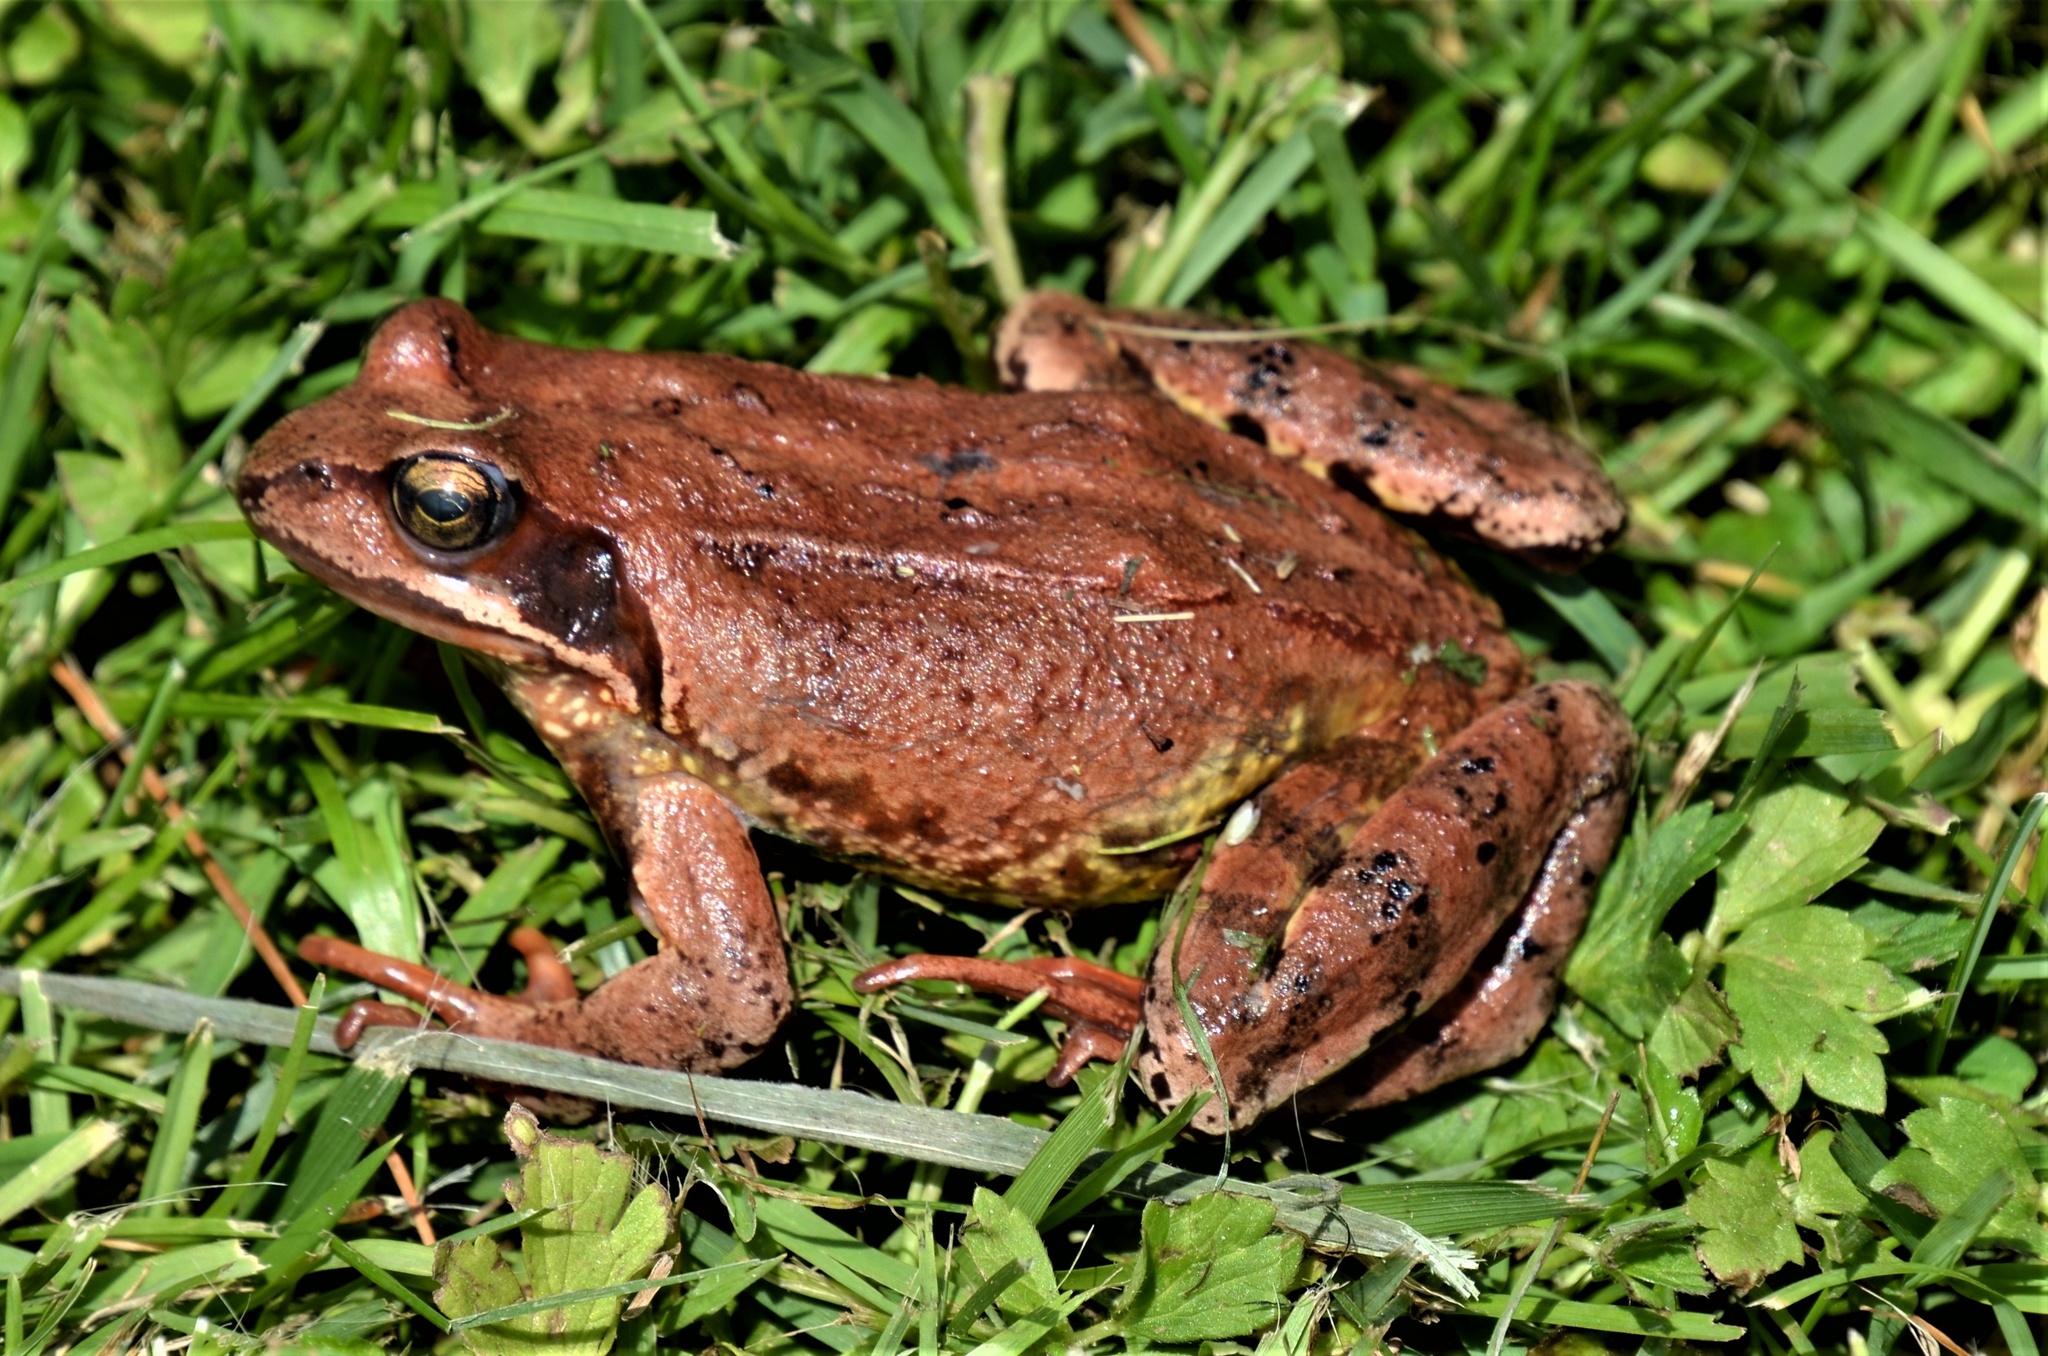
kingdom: Animalia
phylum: Chordata
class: Amphibia
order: Anura
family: Ranidae
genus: Rana
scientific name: Rana temporaria
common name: Common frog
